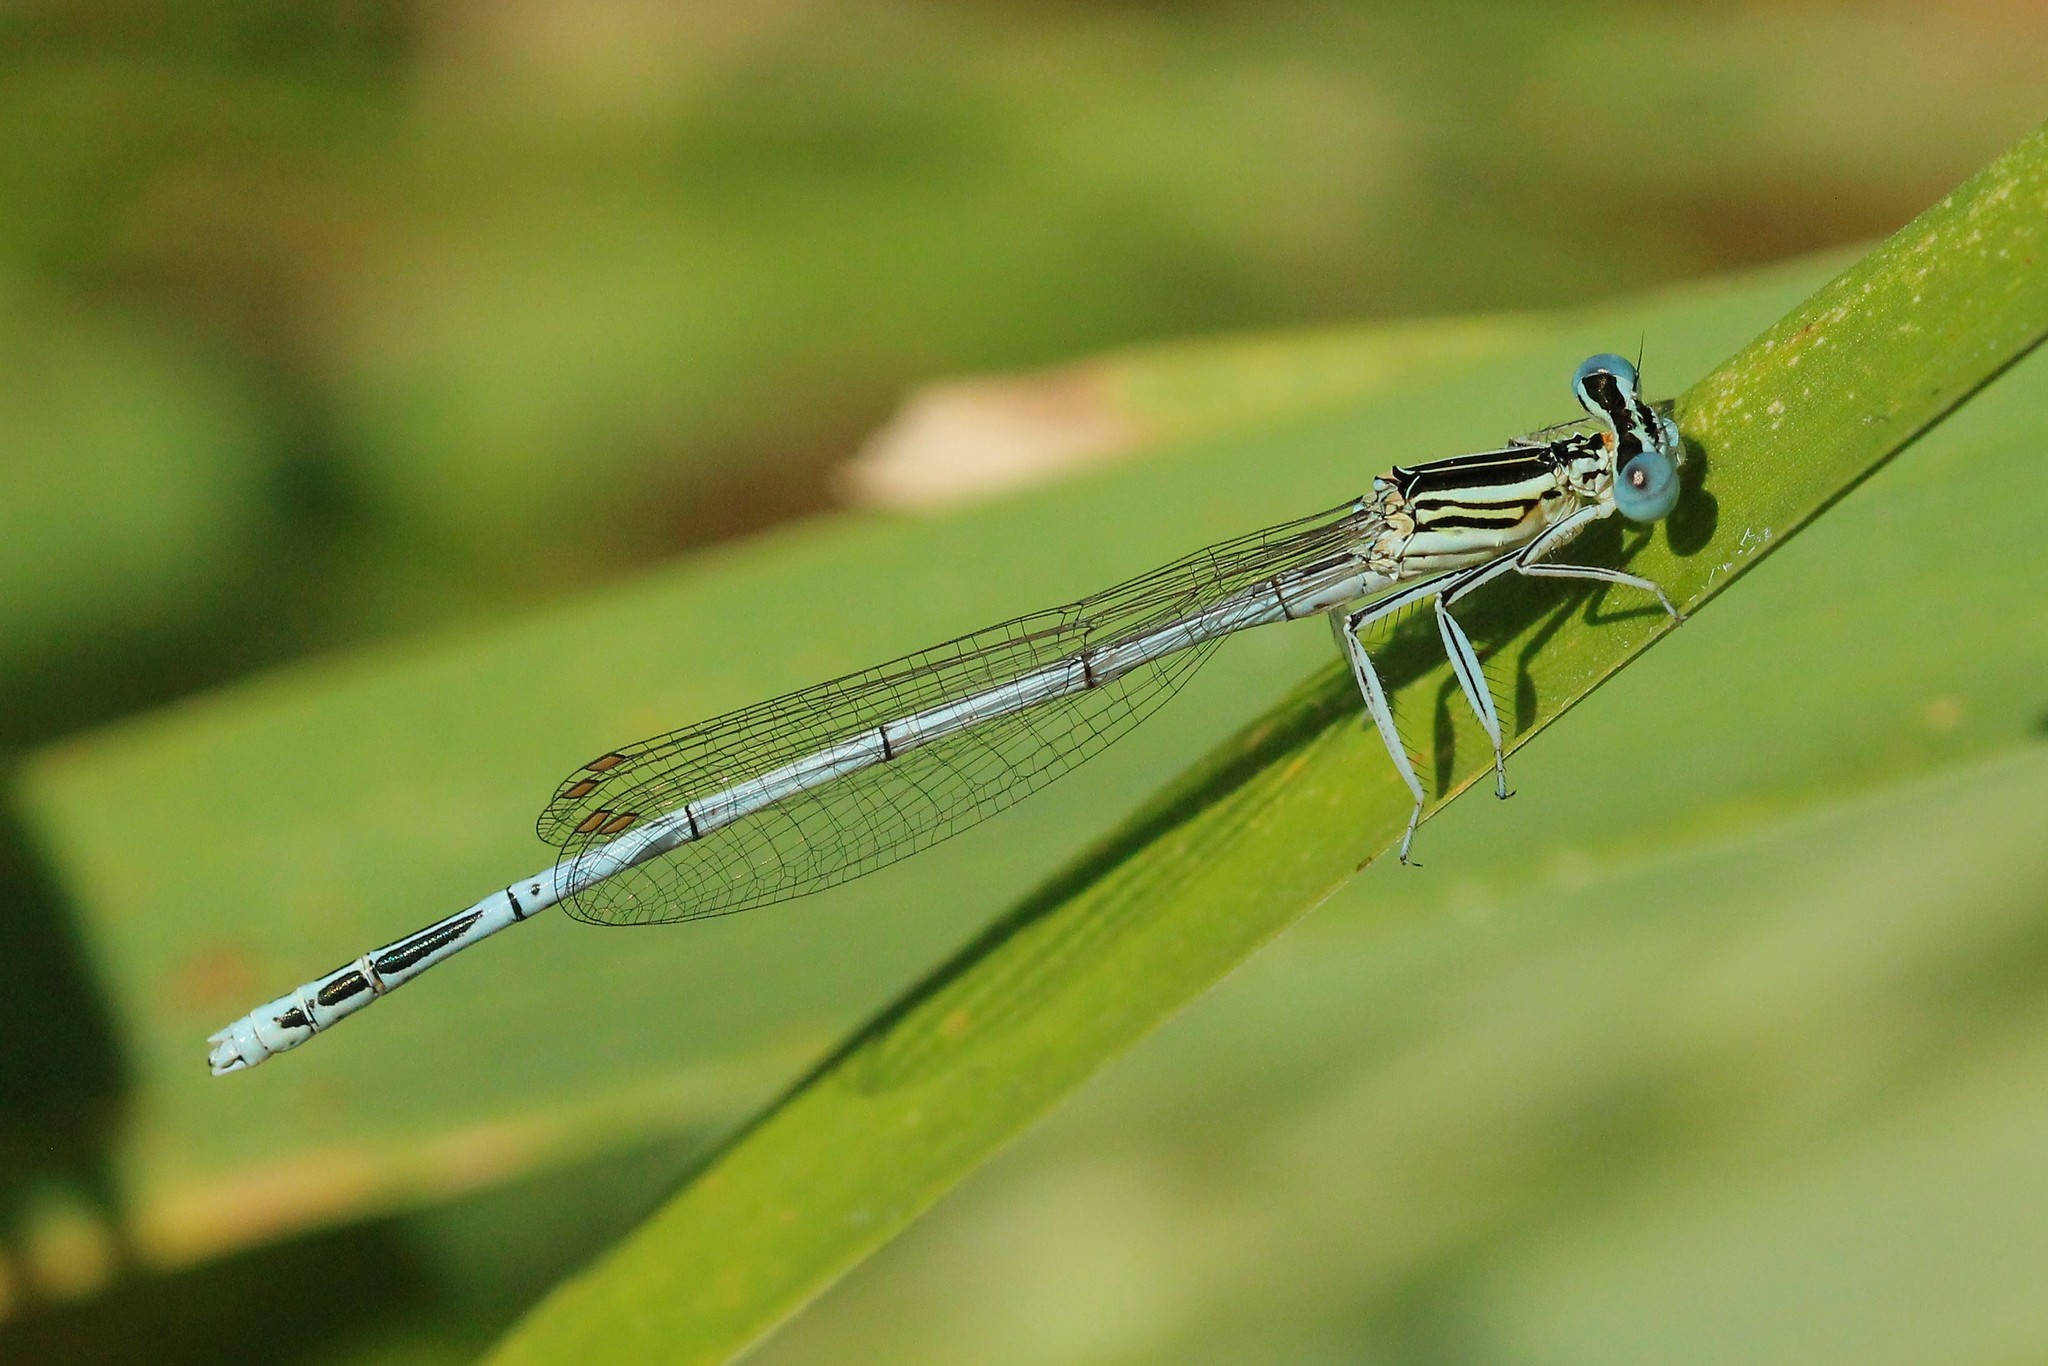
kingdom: Animalia
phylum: Arthropoda
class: Insecta
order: Odonata
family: Platycnemididae
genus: Platycnemis
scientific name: Platycnemis pennipes
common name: White-legged damselfly
